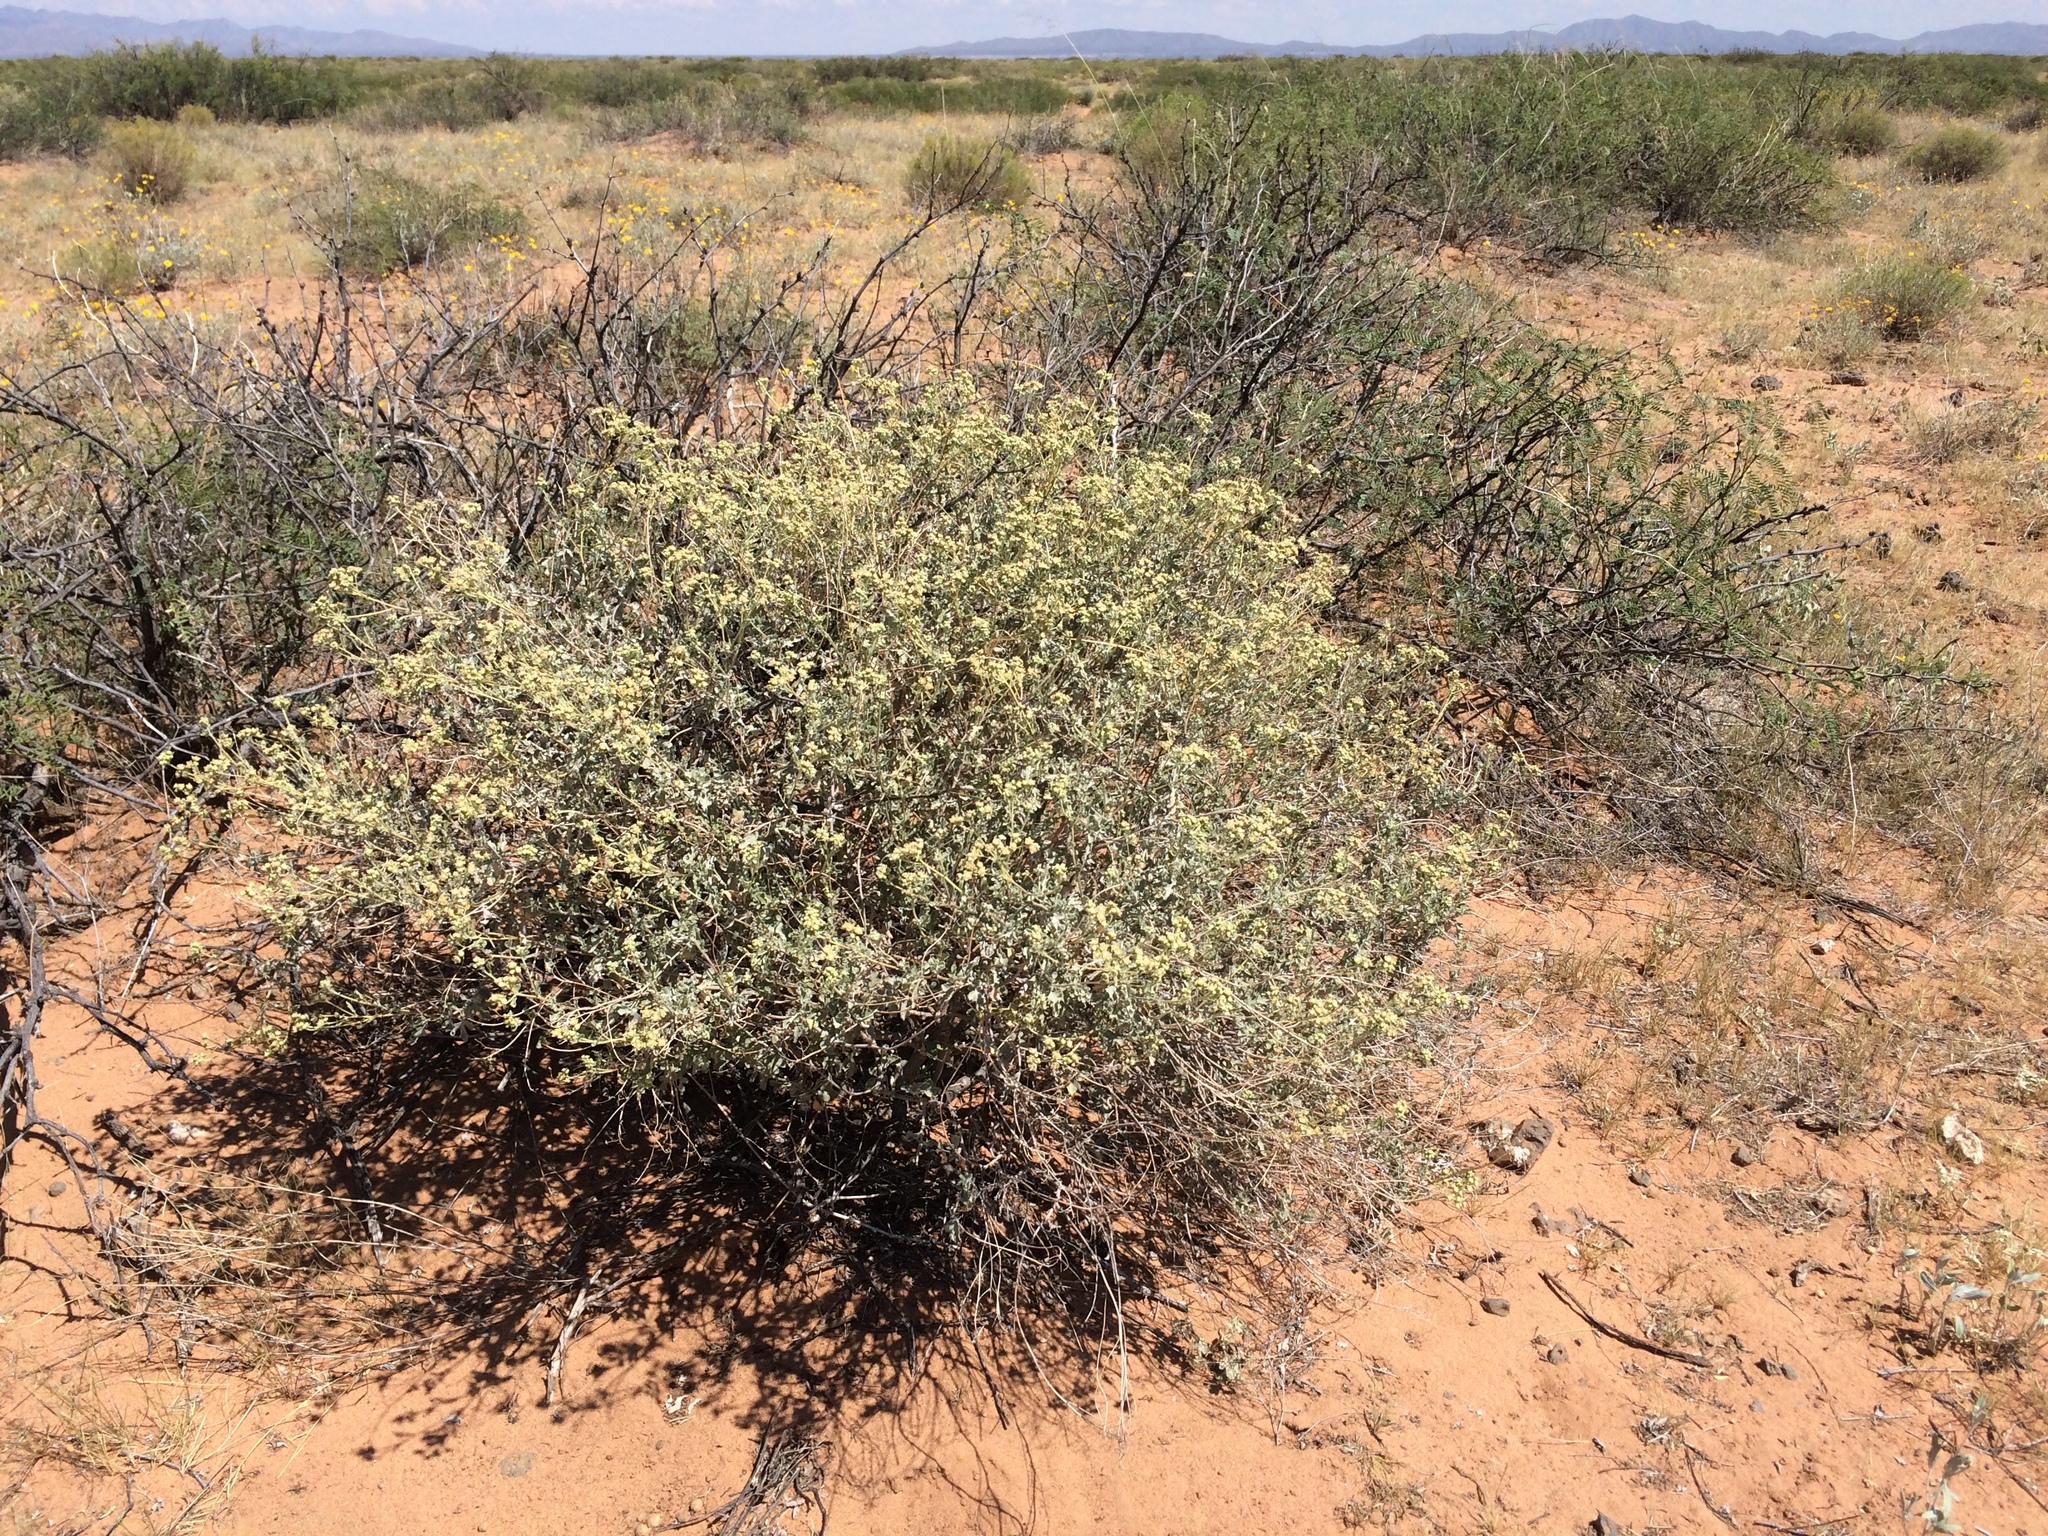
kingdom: Plantae
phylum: Tracheophyta
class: Magnoliopsida
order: Asterales
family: Asteraceae
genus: Parthenium
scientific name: Parthenium incanum
